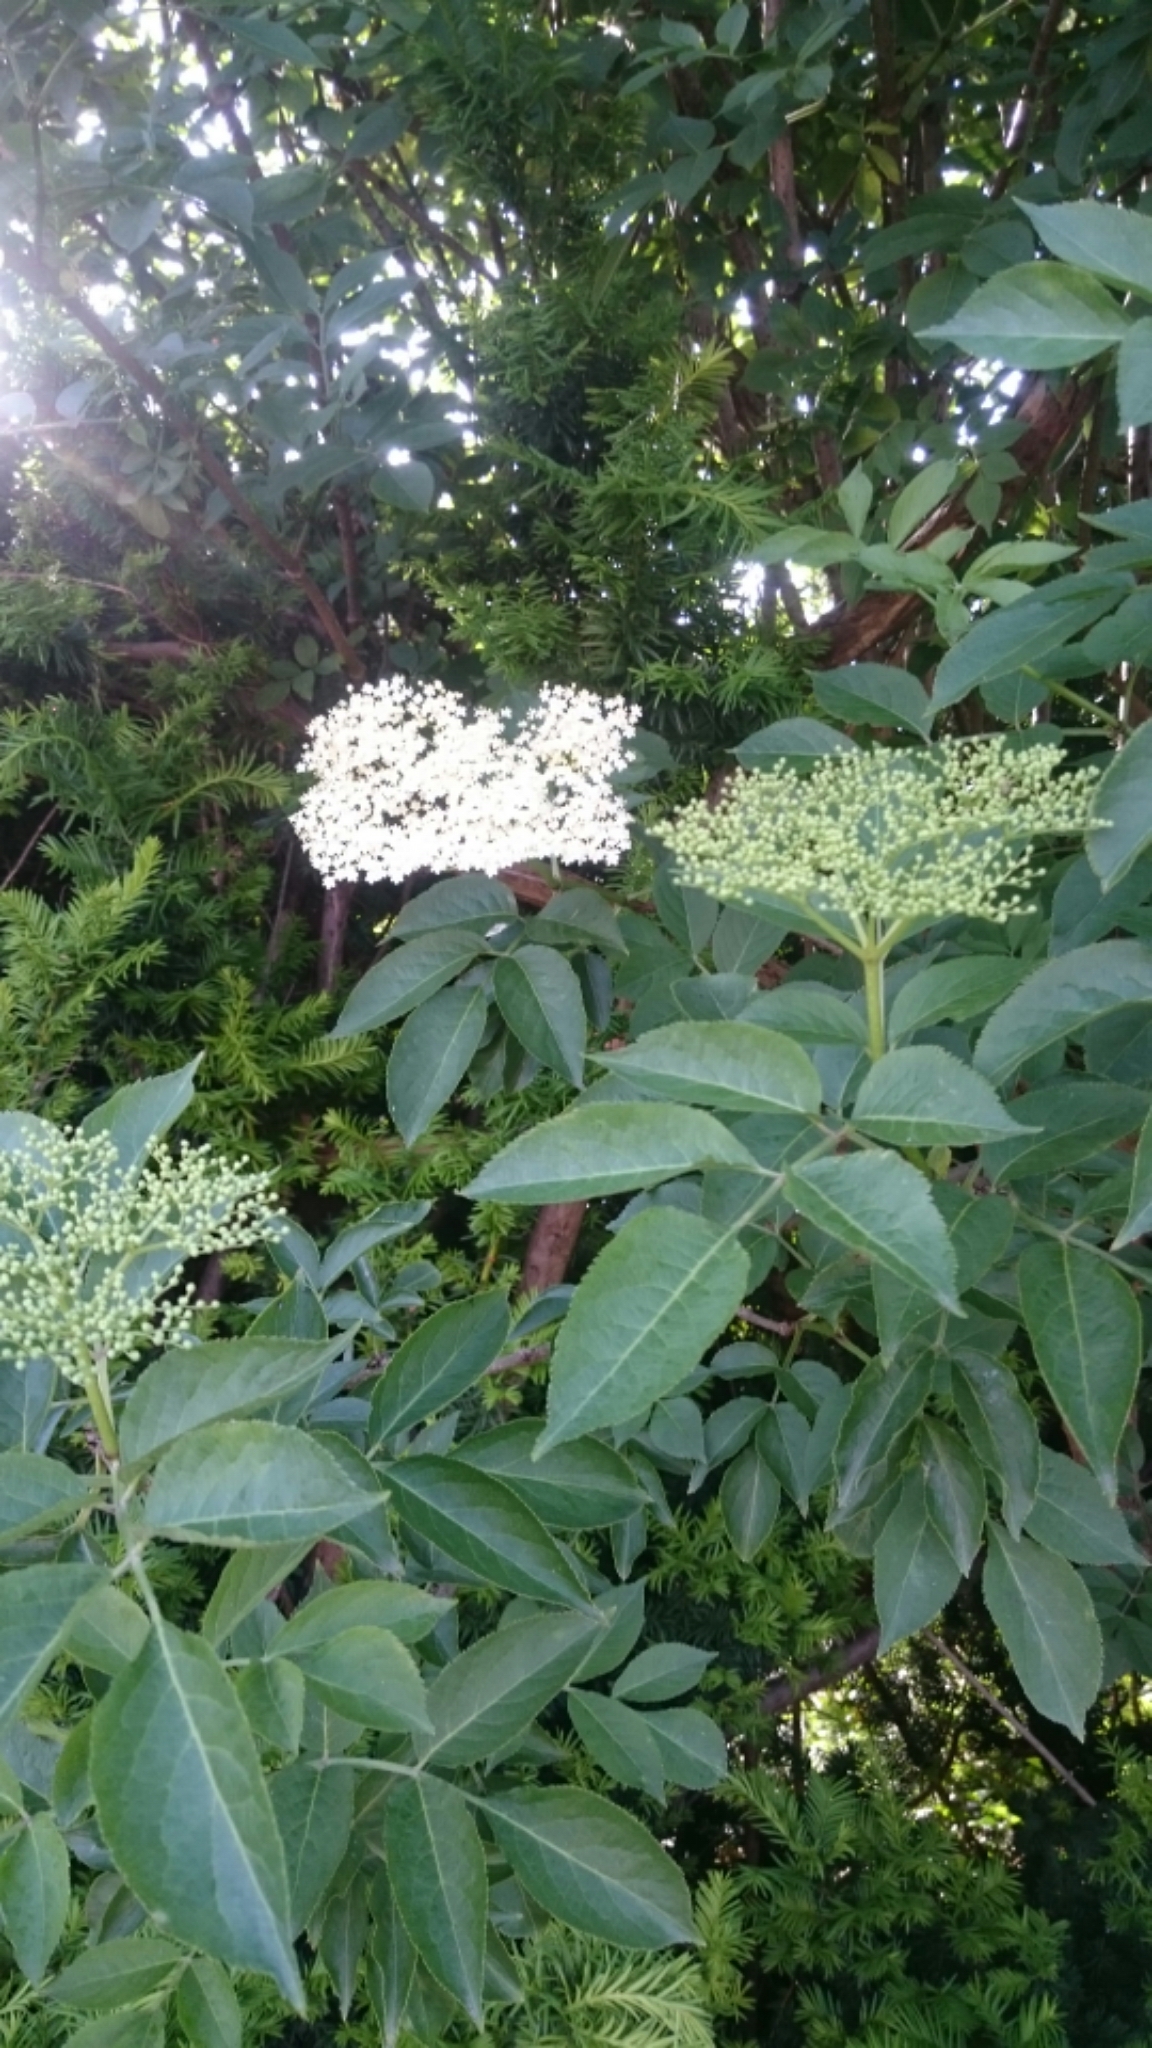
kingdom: Plantae
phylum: Tracheophyta
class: Magnoliopsida
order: Dipsacales
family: Viburnaceae
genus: Sambucus
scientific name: Sambucus nigra
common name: Elder
